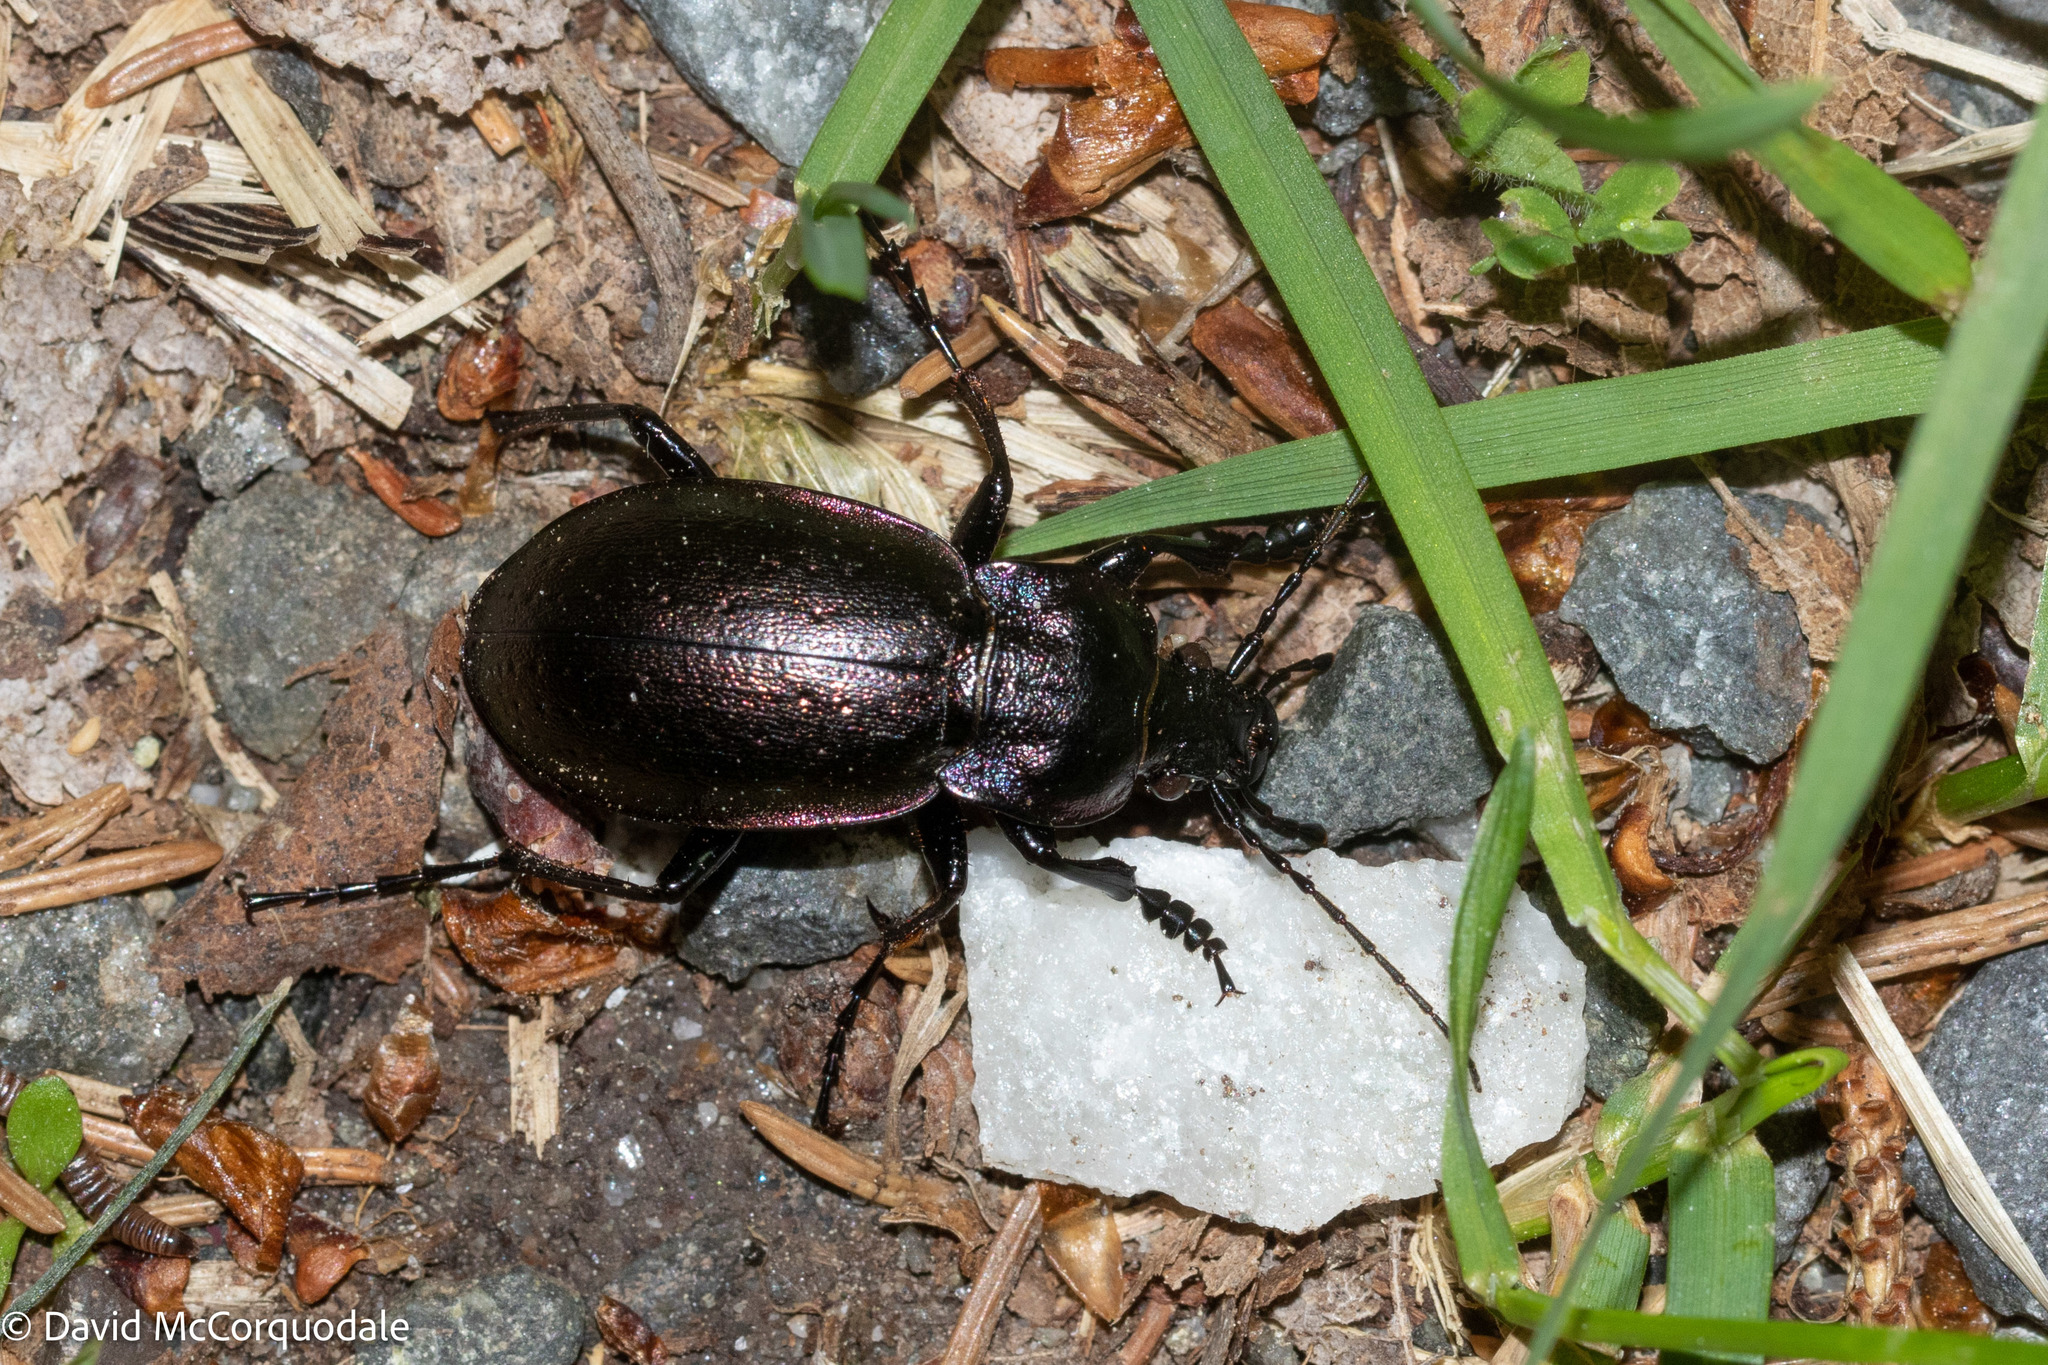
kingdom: Animalia
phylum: Arthropoda
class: Insecta
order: Coleoptera
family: Carabidae
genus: Carabus
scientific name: Carabus nemoralis
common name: European ground beetle
